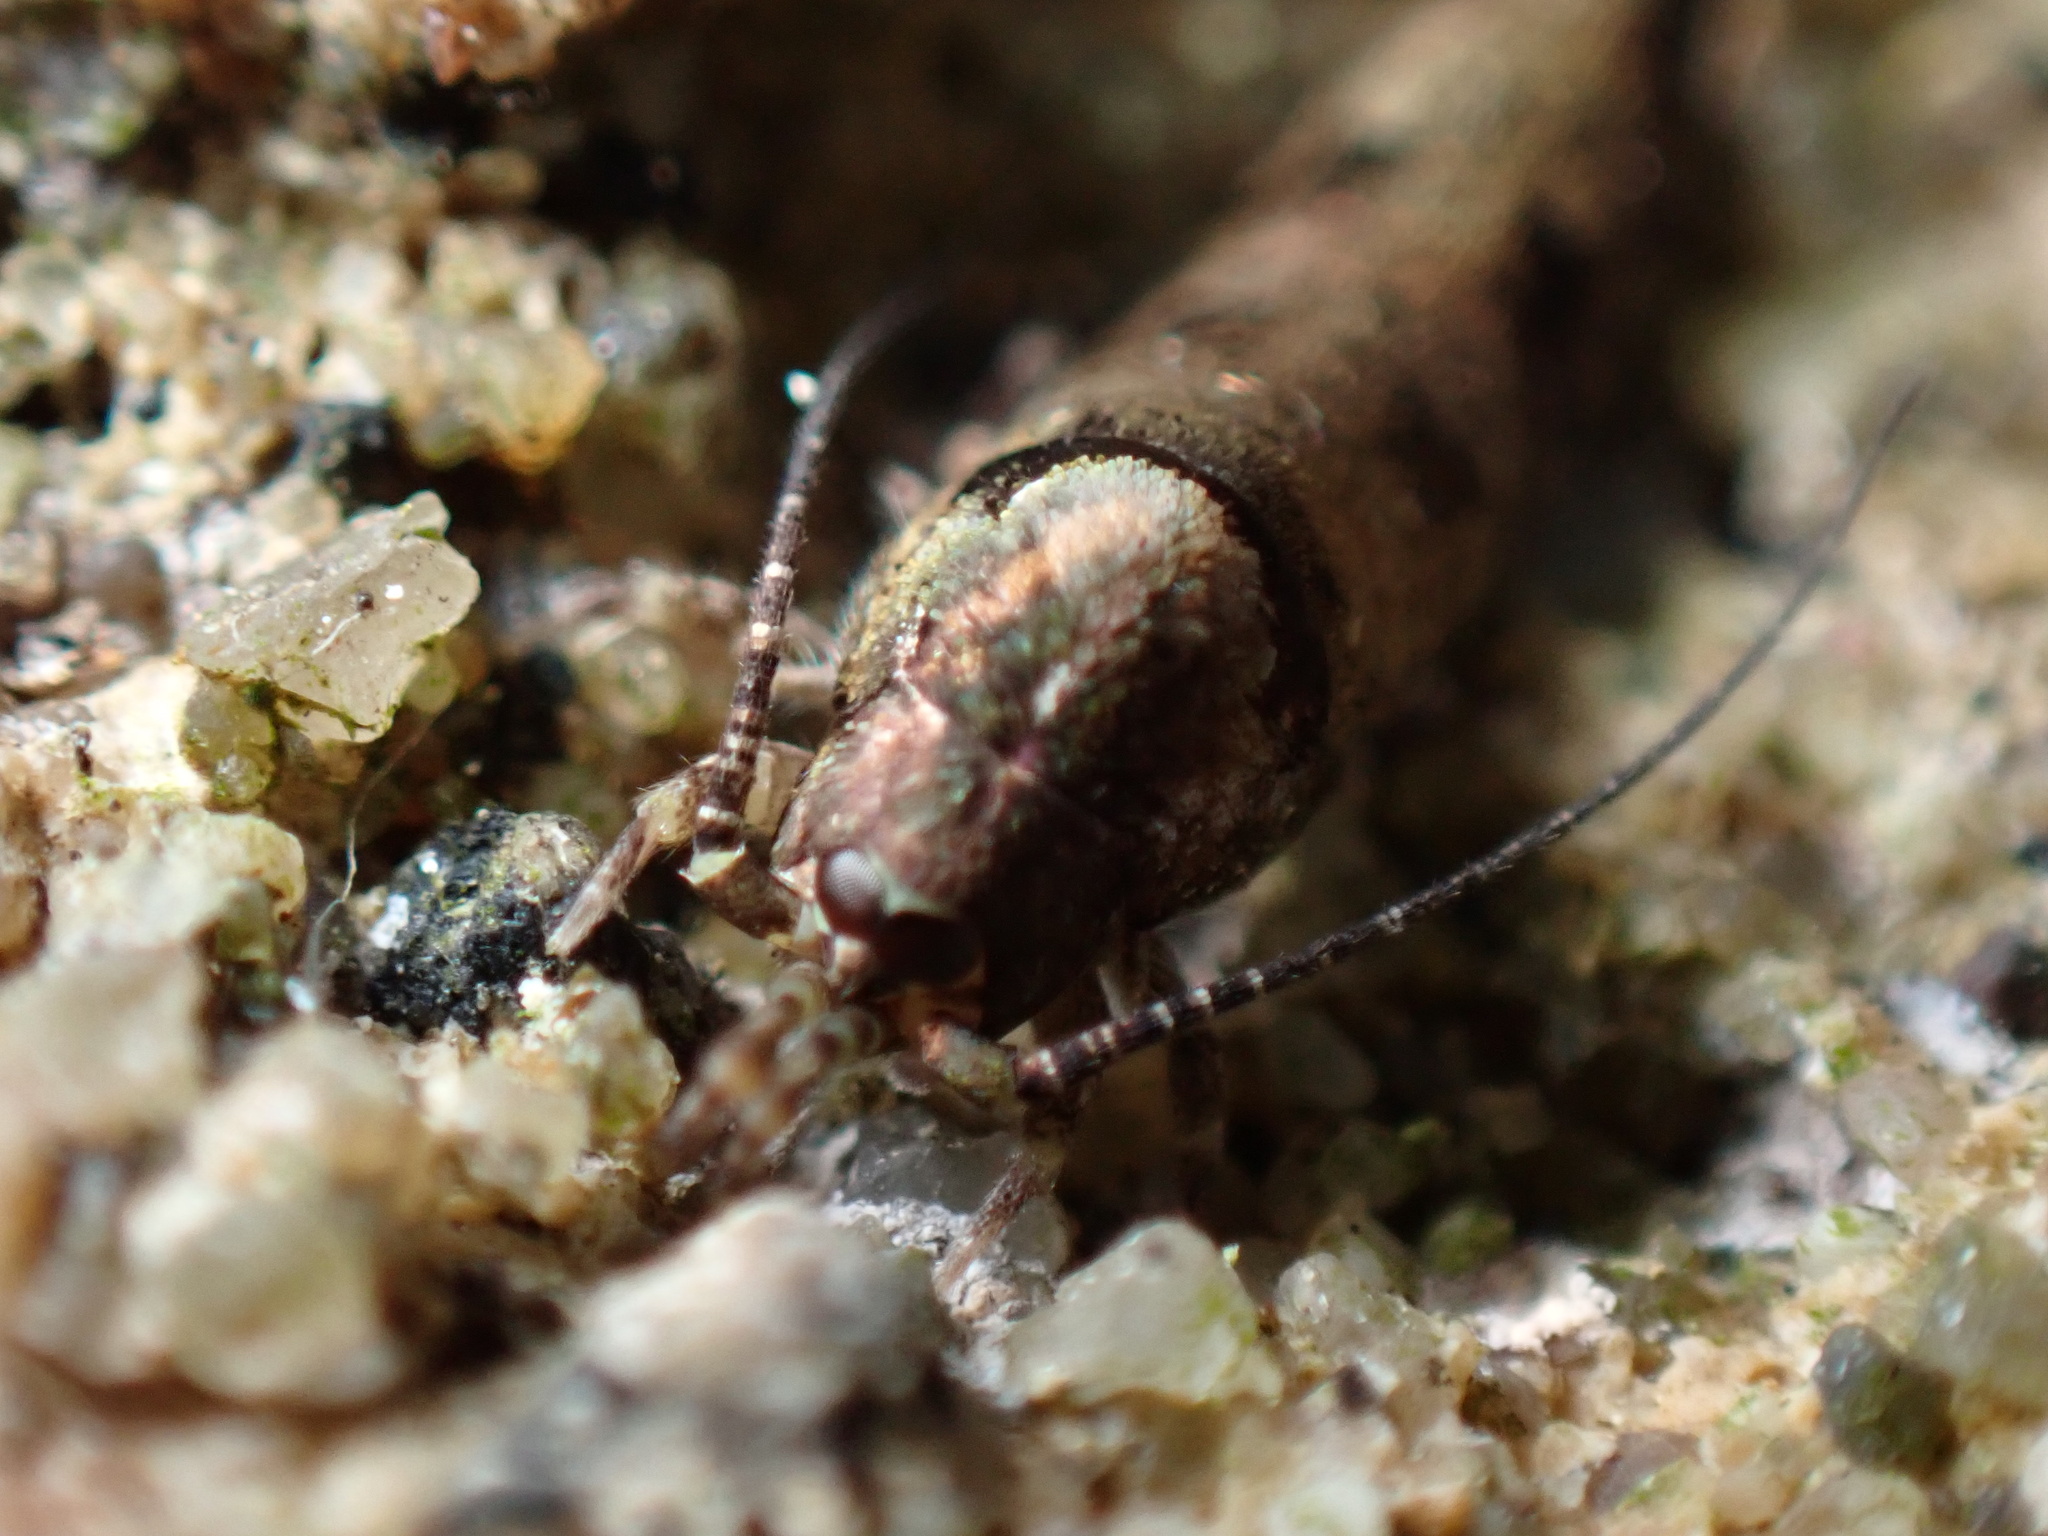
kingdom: Animalia
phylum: Arthropoda
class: Insecta
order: Archaeognatha
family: Machilidae
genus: Trigoniophthalmus
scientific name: Trigoniophthalmus alternatus
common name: Jumping bristletail
